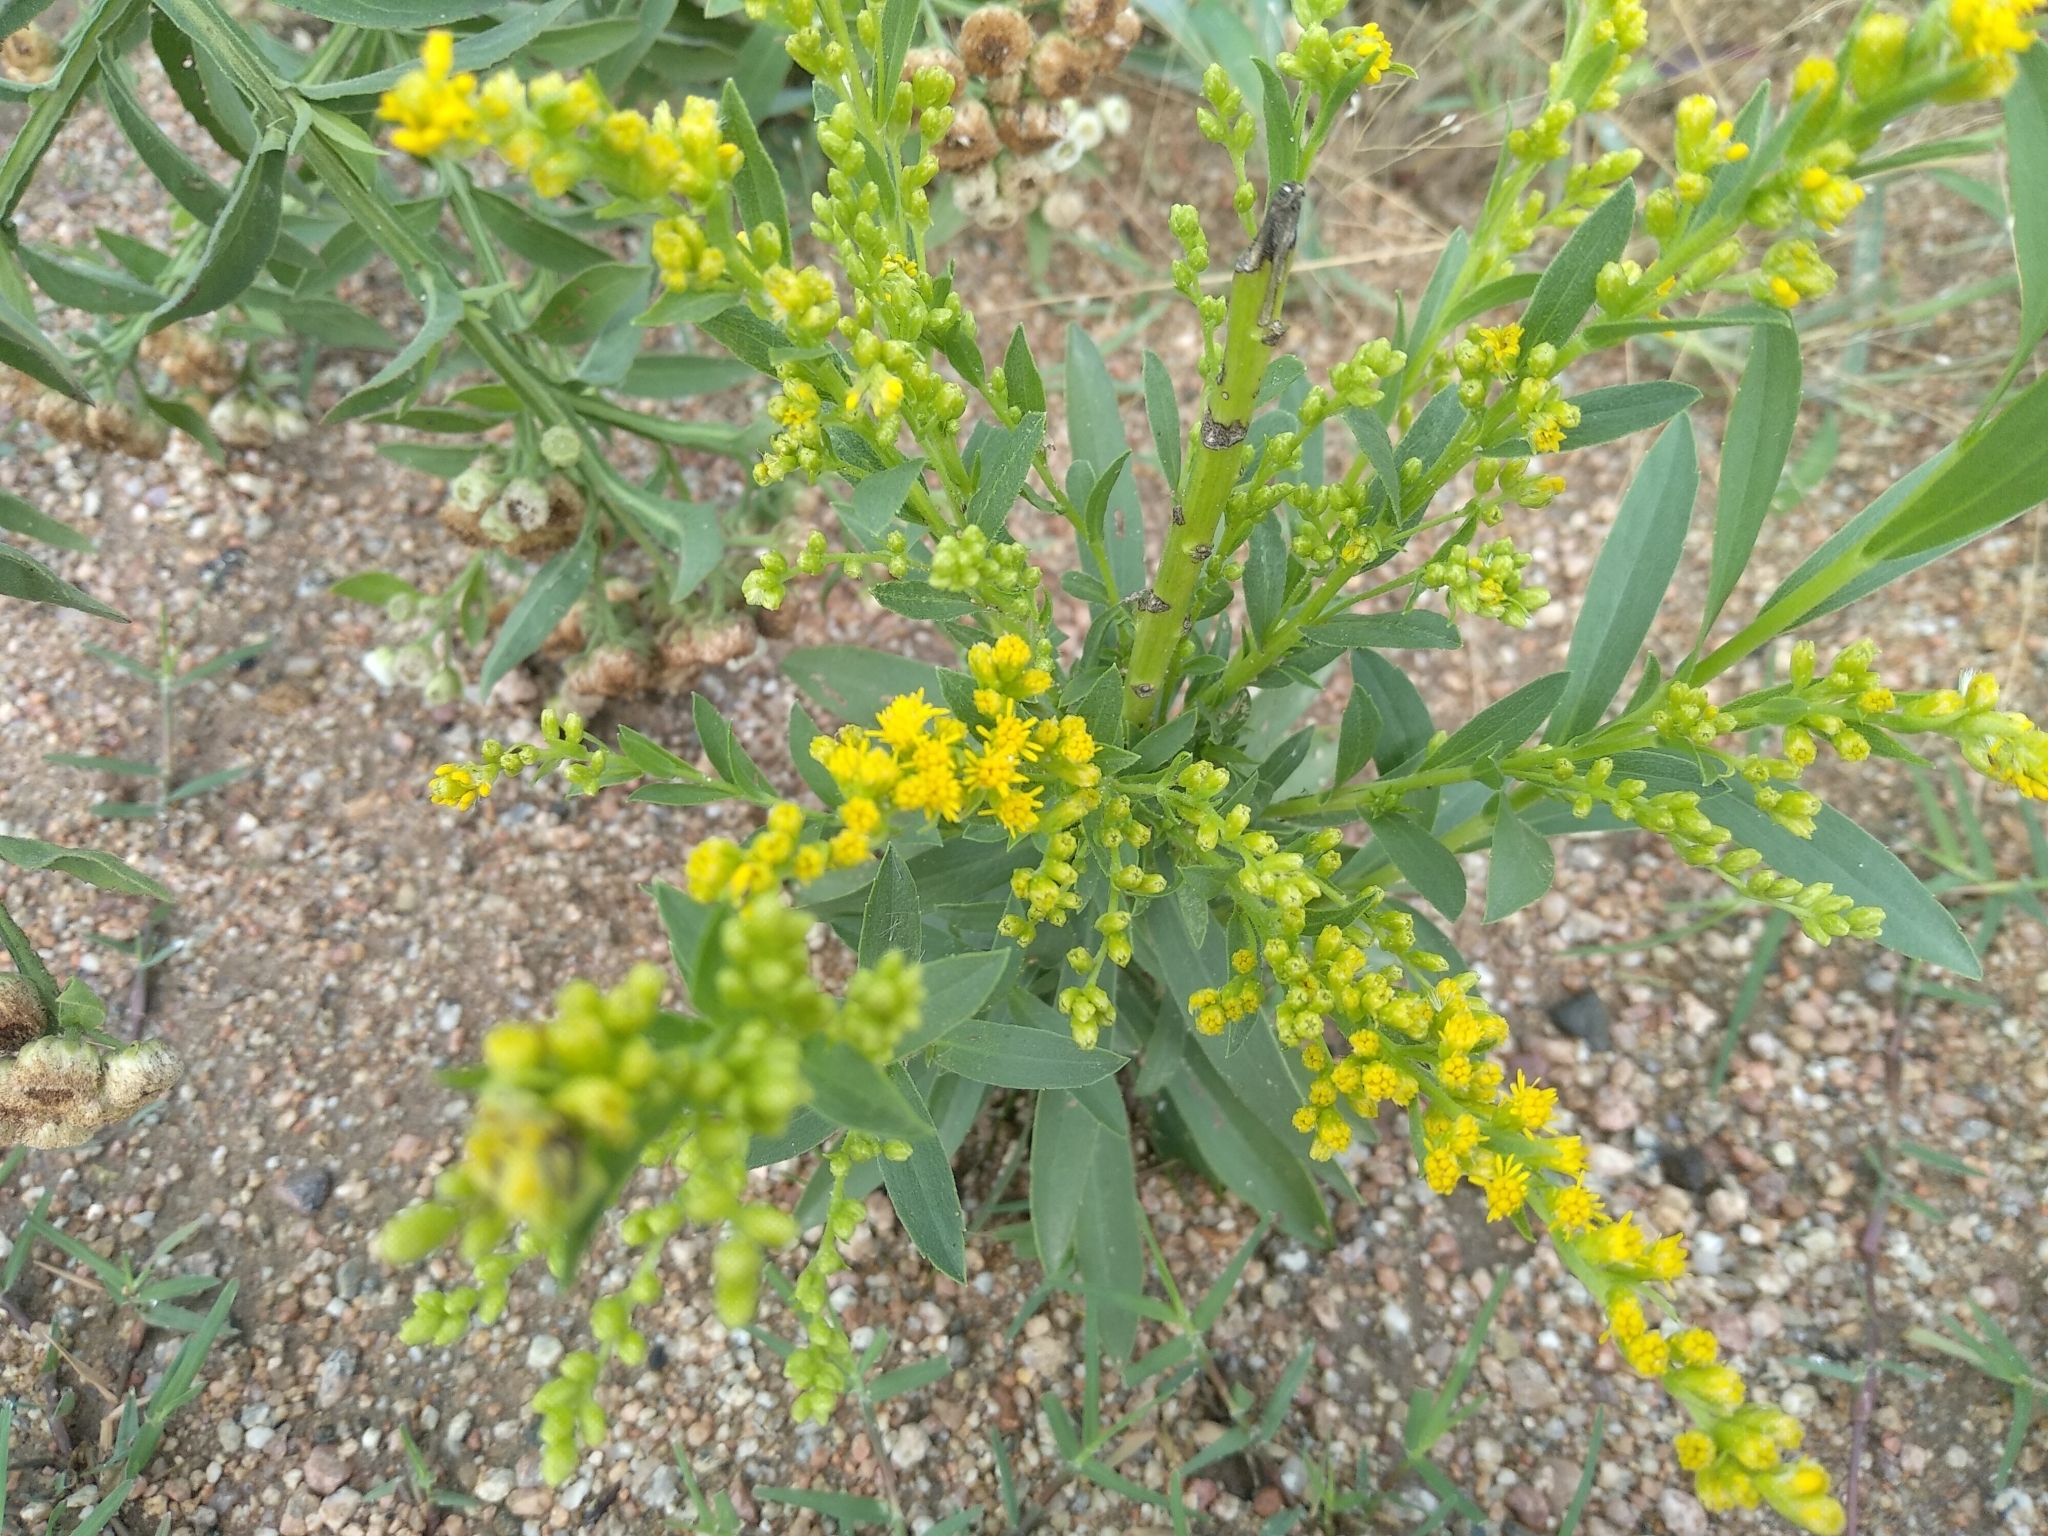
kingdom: Plantae
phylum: Tracheophyta
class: Magnoliopsida
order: Asterales
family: Asteraceae
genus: Solidago
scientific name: Solidago chilensis
